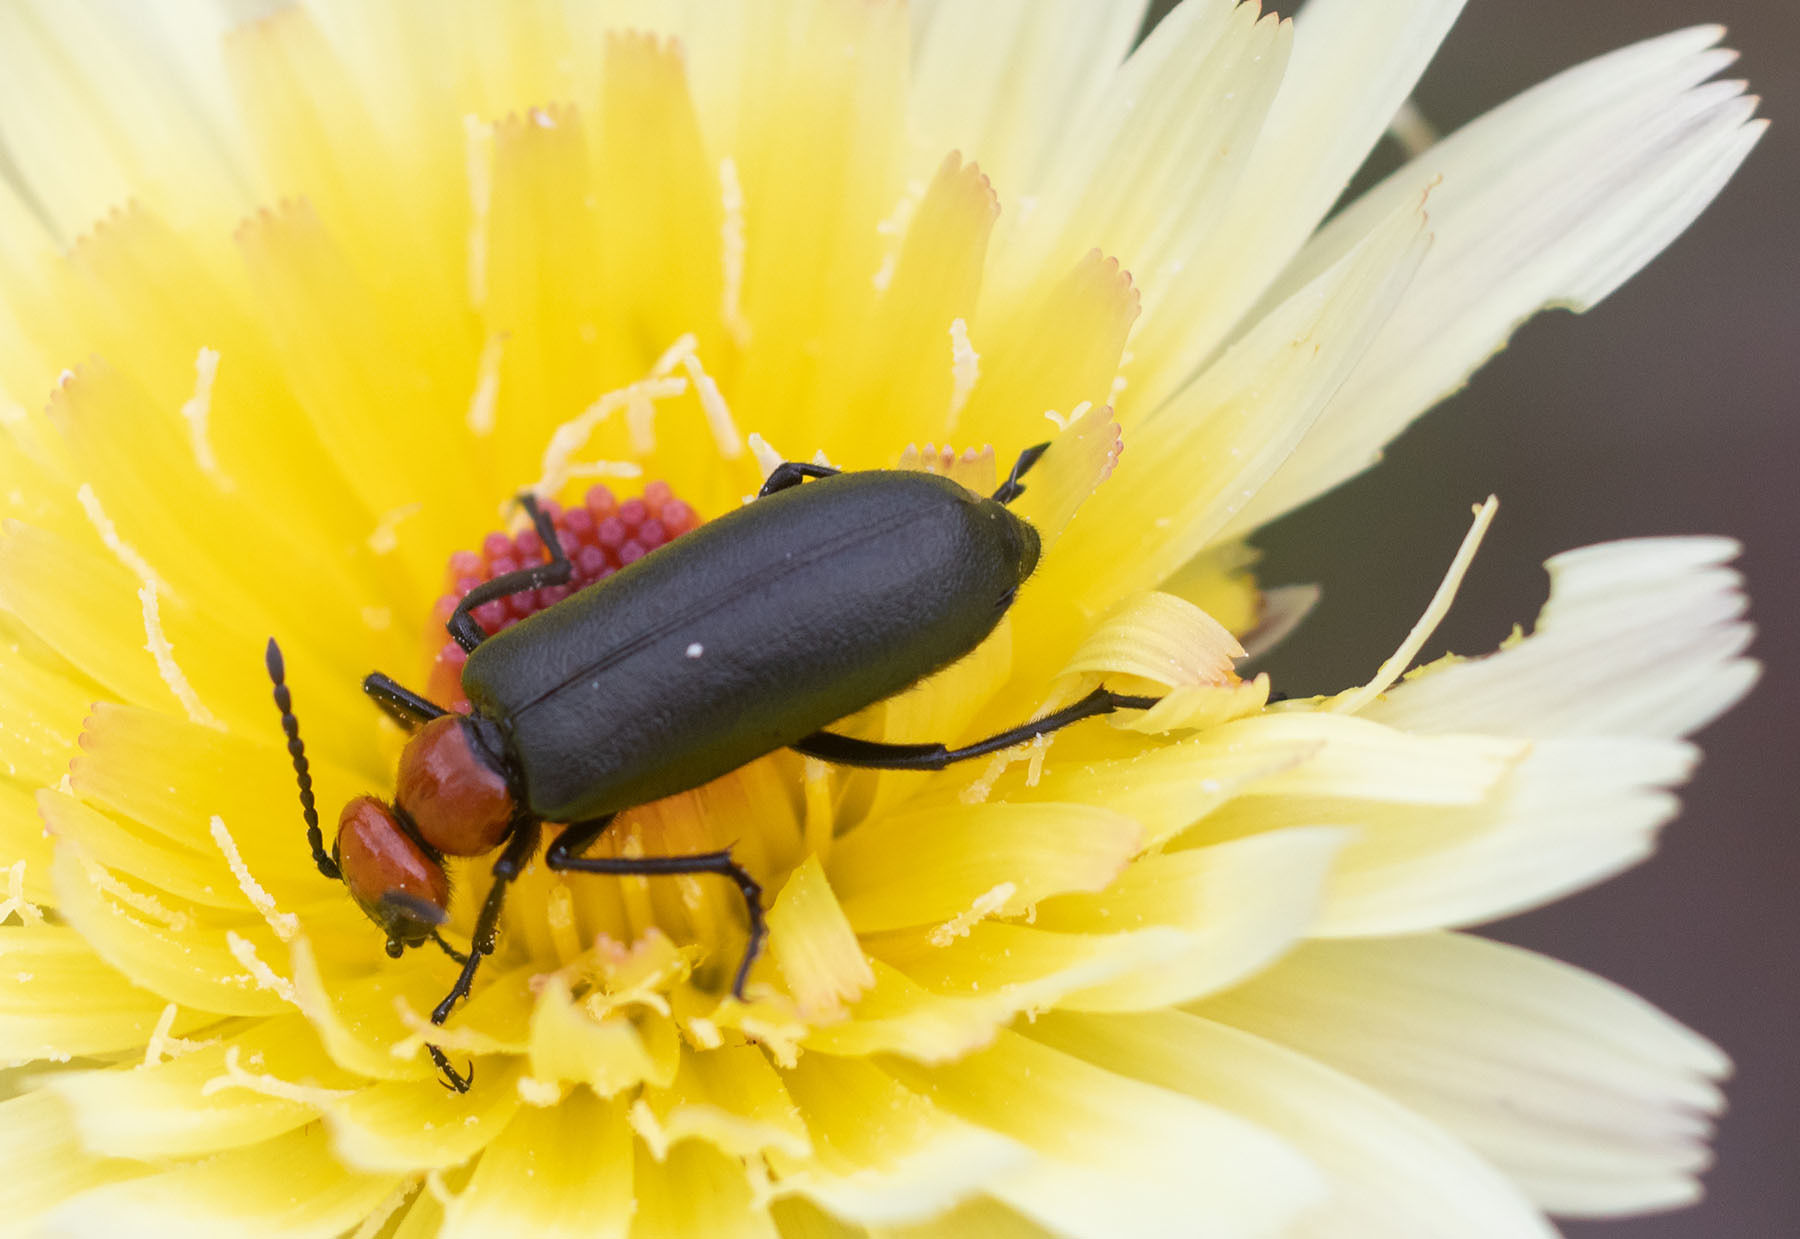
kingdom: Animalia
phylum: Arthropoda
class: Insecta
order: Coleoptera
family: Meloidae
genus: Lytta
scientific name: Lytta vulnerata
